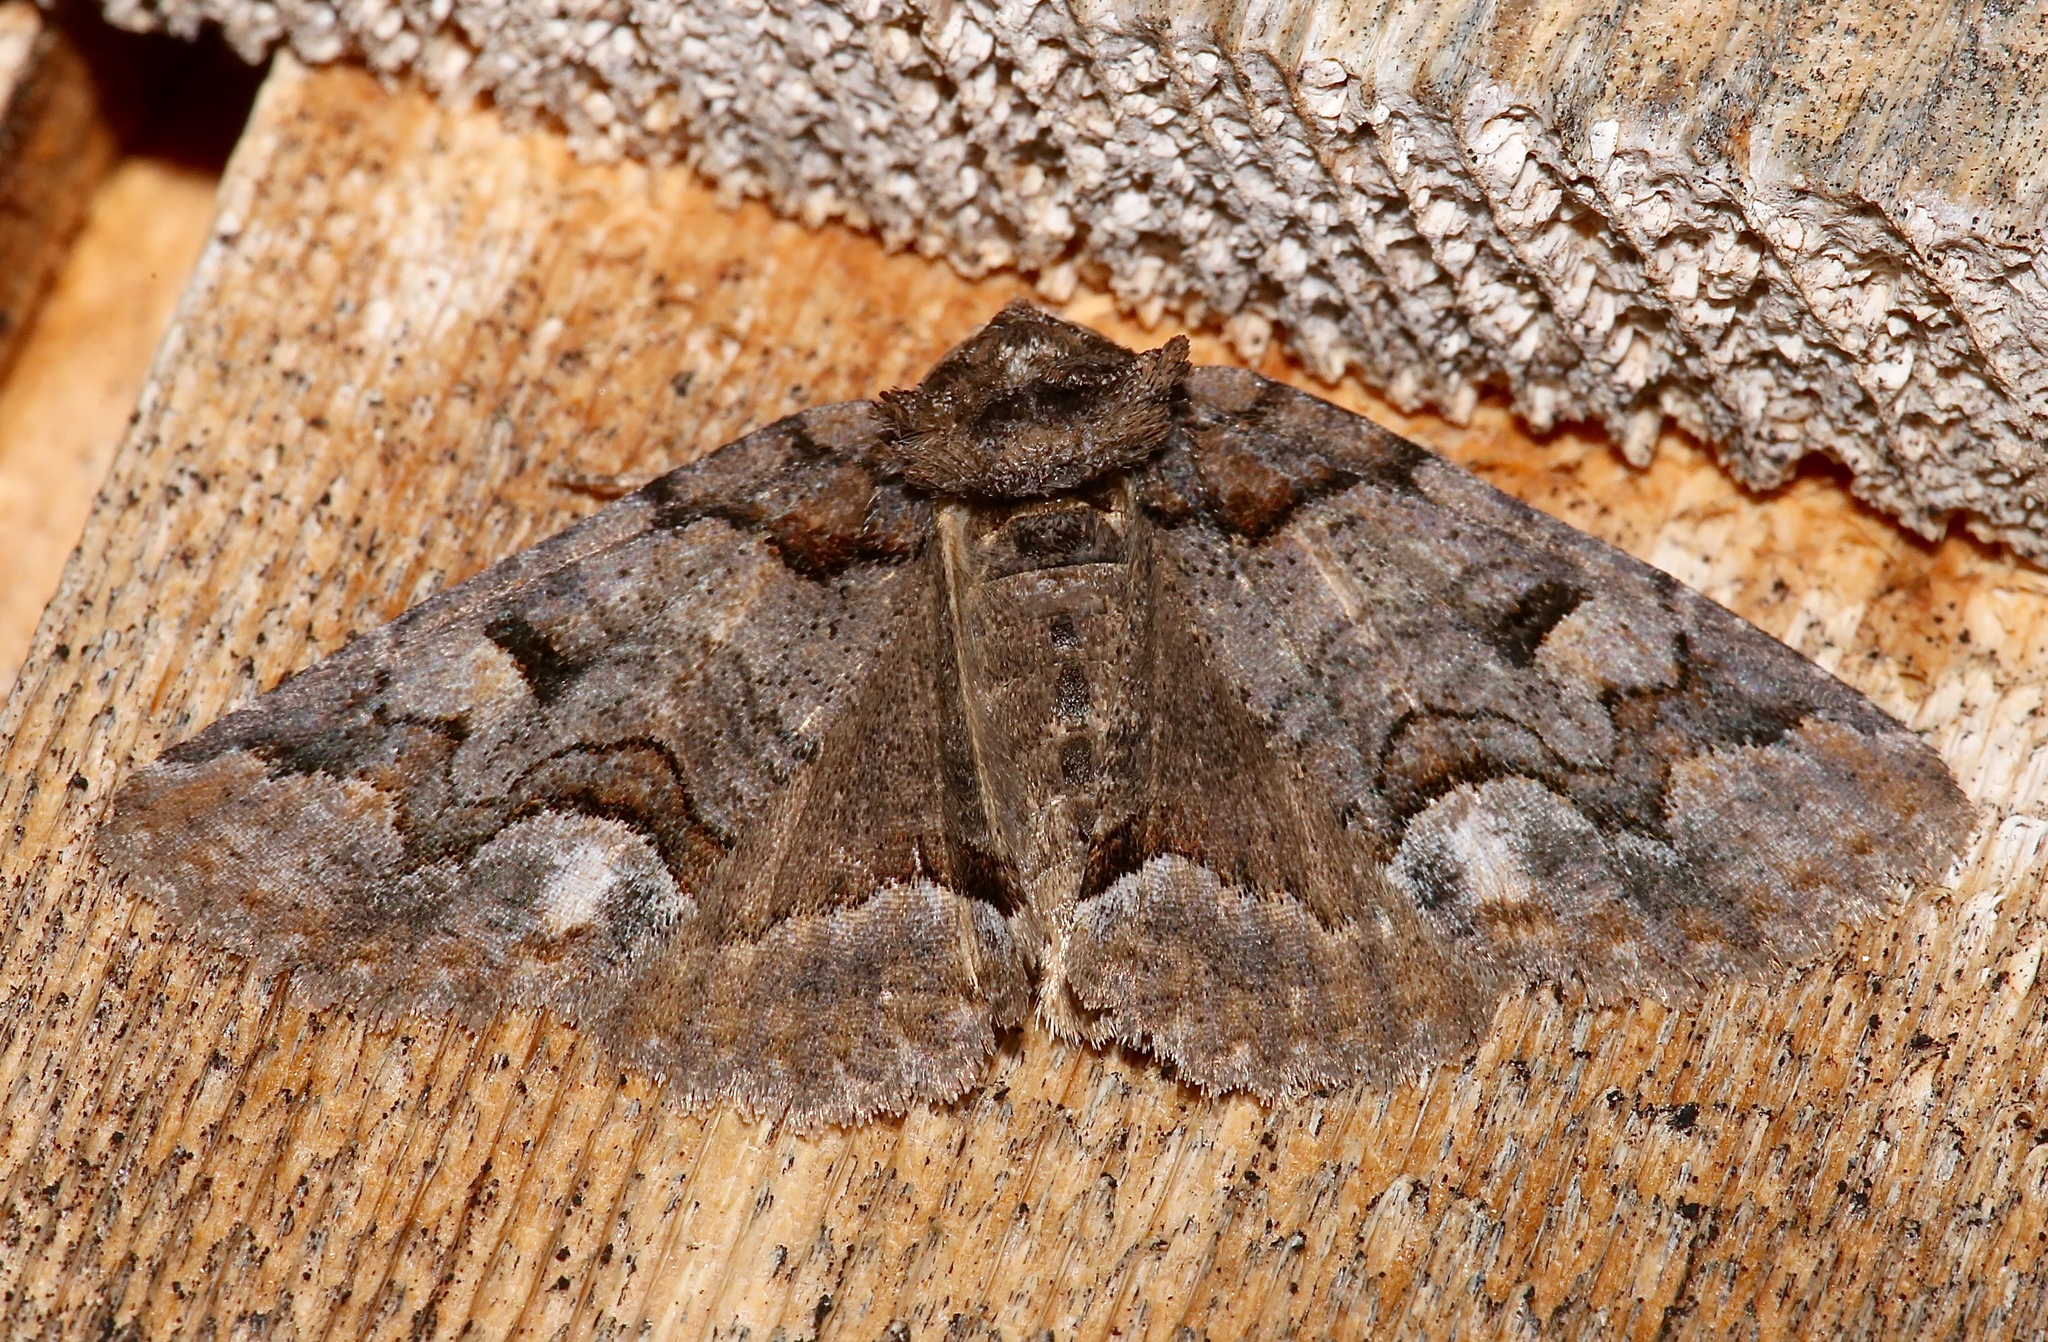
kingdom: Animalia
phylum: Arthropoda
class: Insecta
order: Lepidoptera
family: Erebidae
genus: Zale
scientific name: Zale helata
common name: Brown-spotted zale moth
